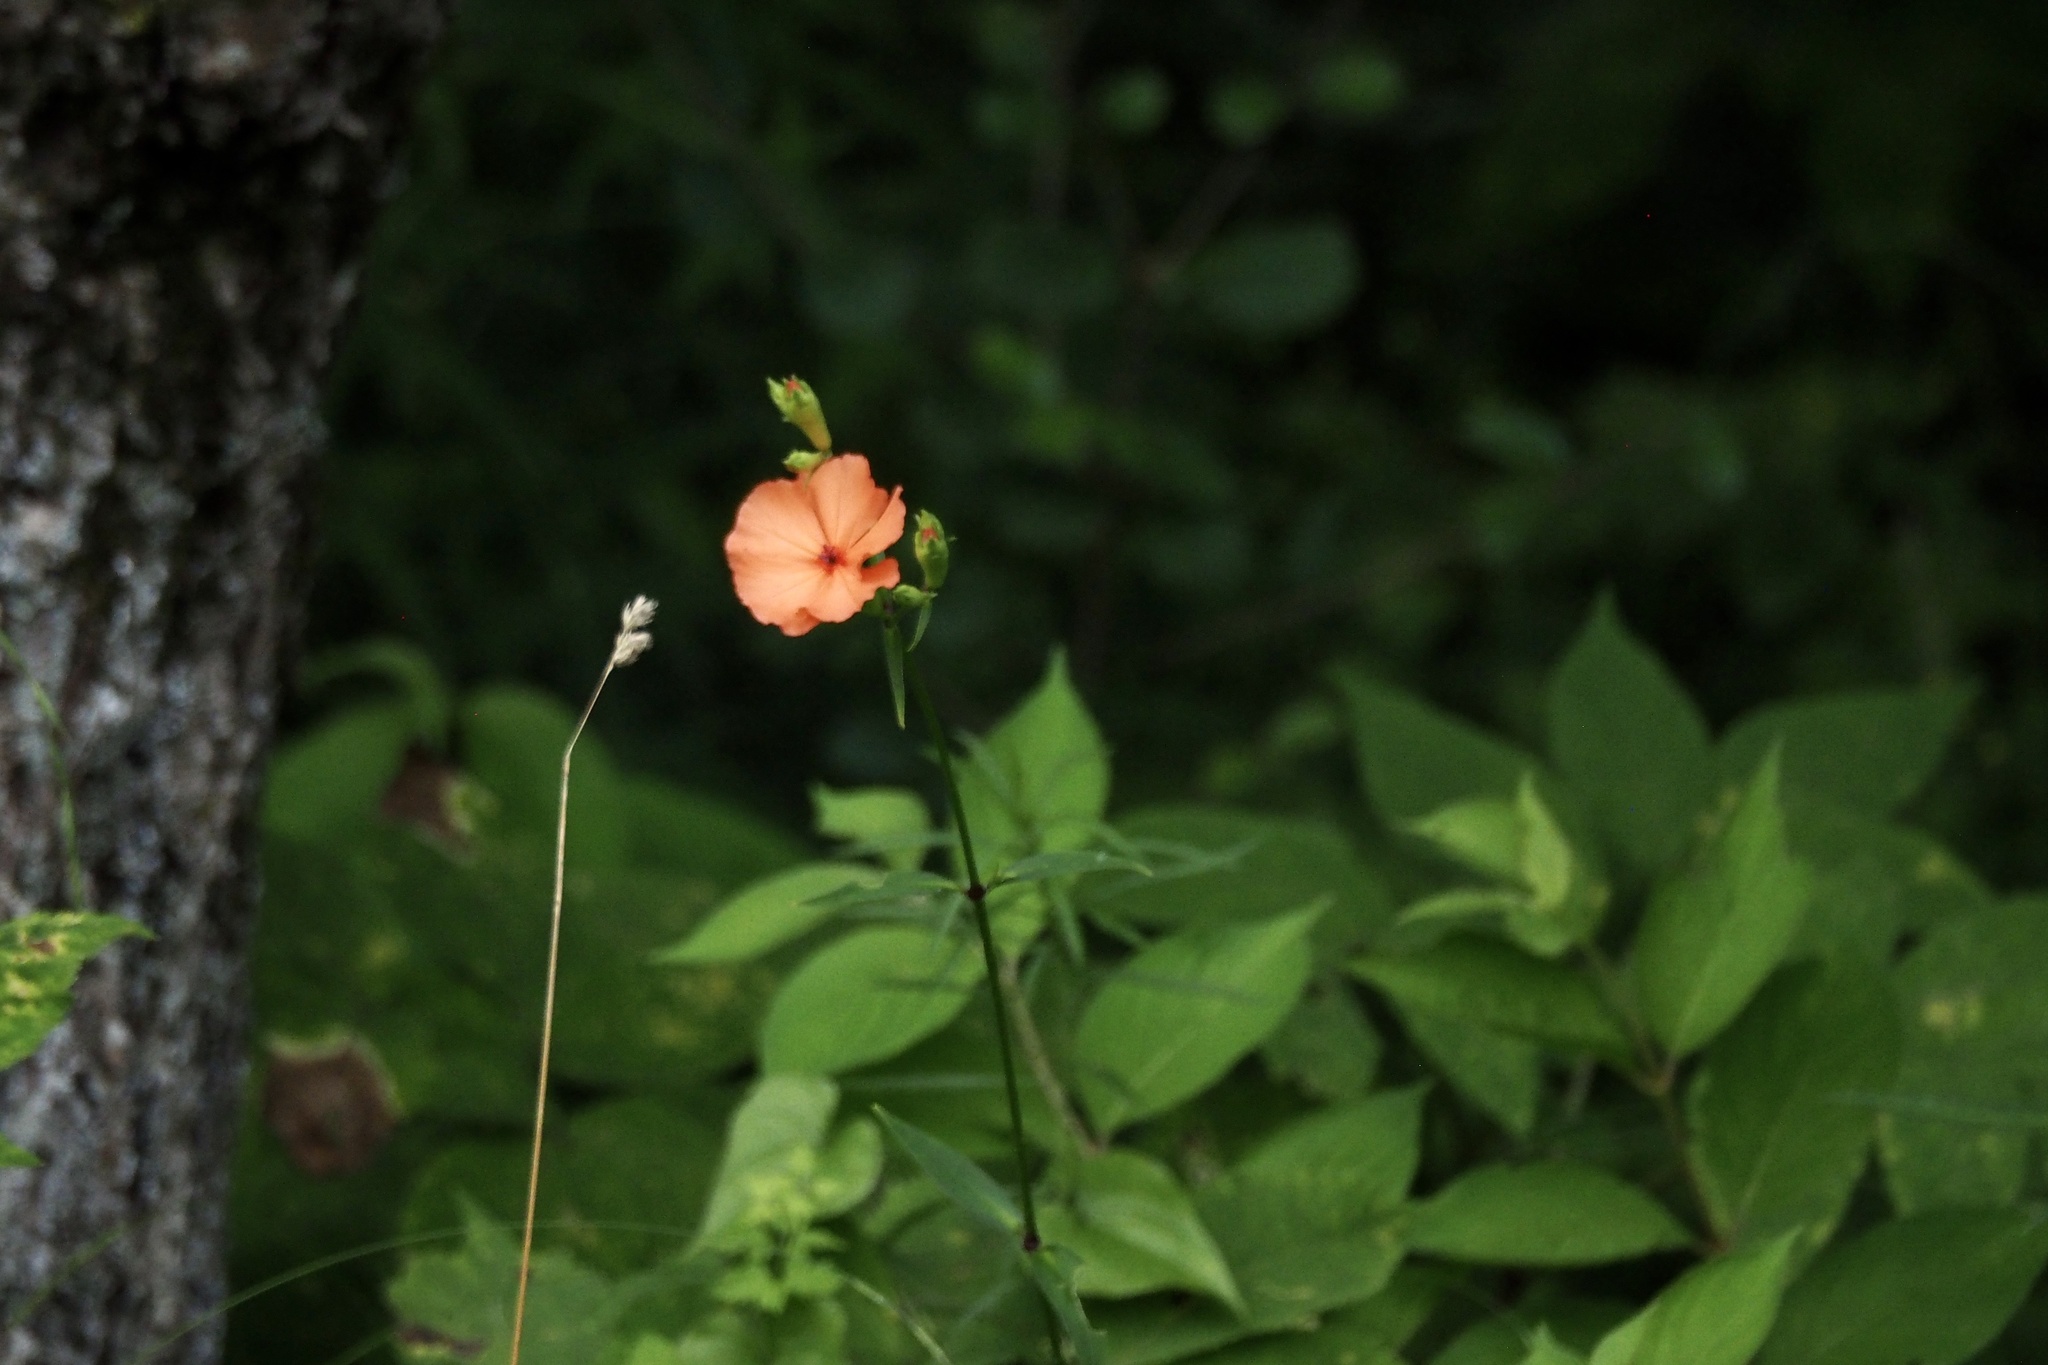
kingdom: Plantae
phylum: Tracheophyta
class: Magnoliopsida
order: Caryophyllales
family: Caryophyllaceae
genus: Silene
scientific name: Silene miqueliana
